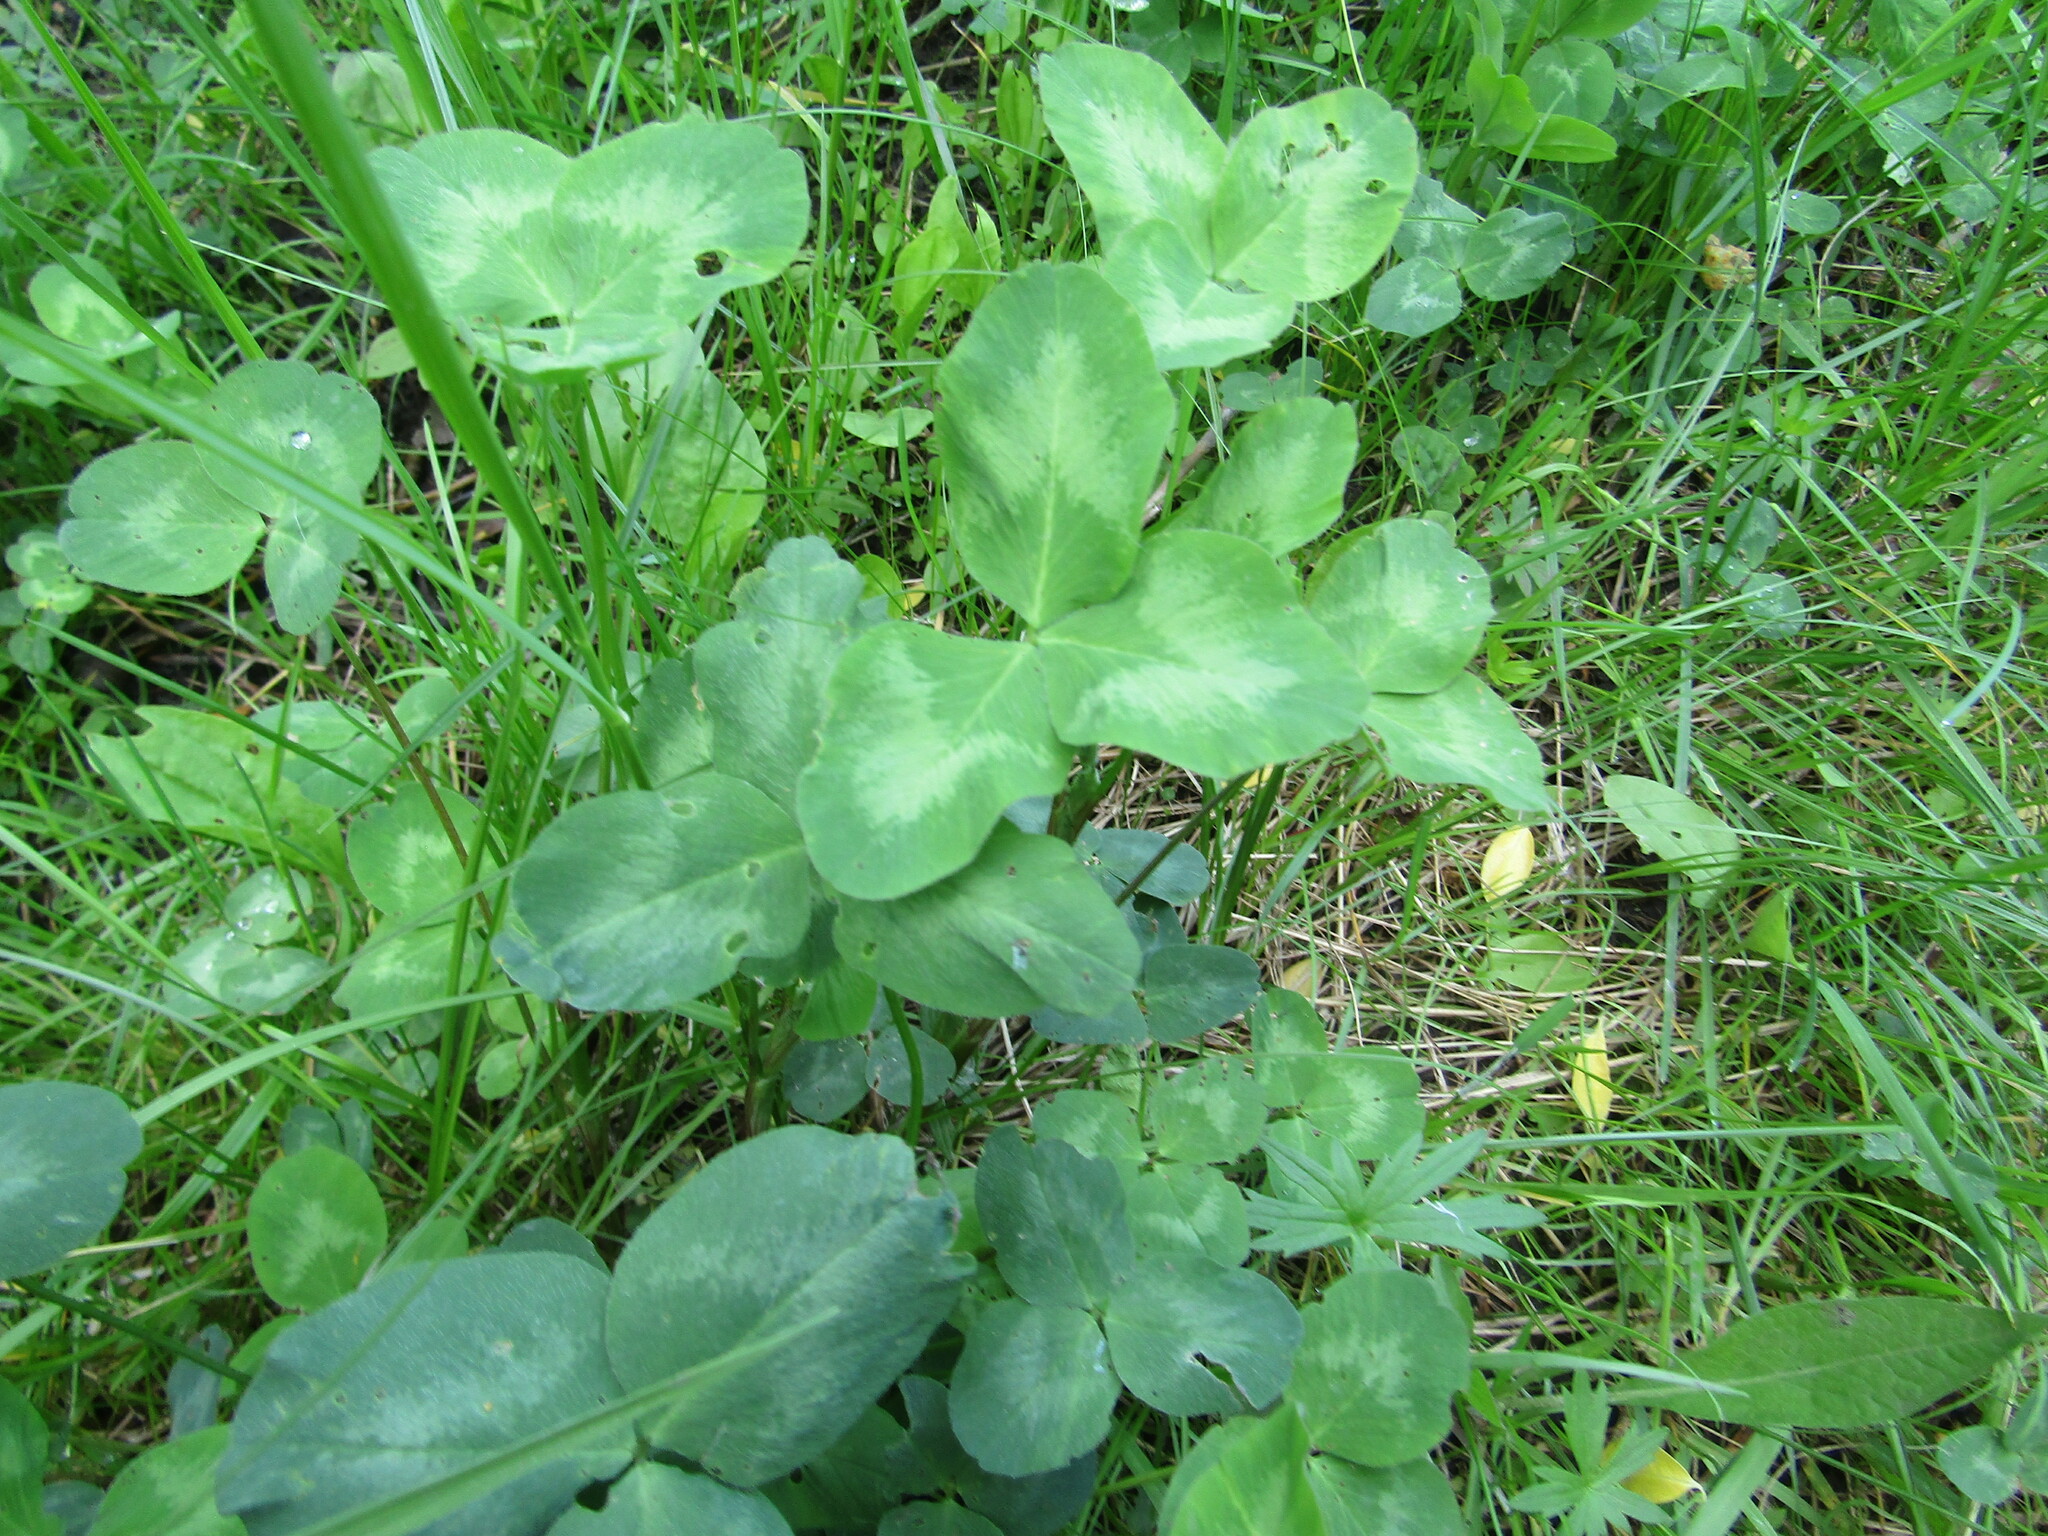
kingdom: Plantae
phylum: Tracheophyta
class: Magnoliopsida
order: Fabales
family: Fabaceae
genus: Trifolium
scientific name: Trifolium pratense
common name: Red clover
